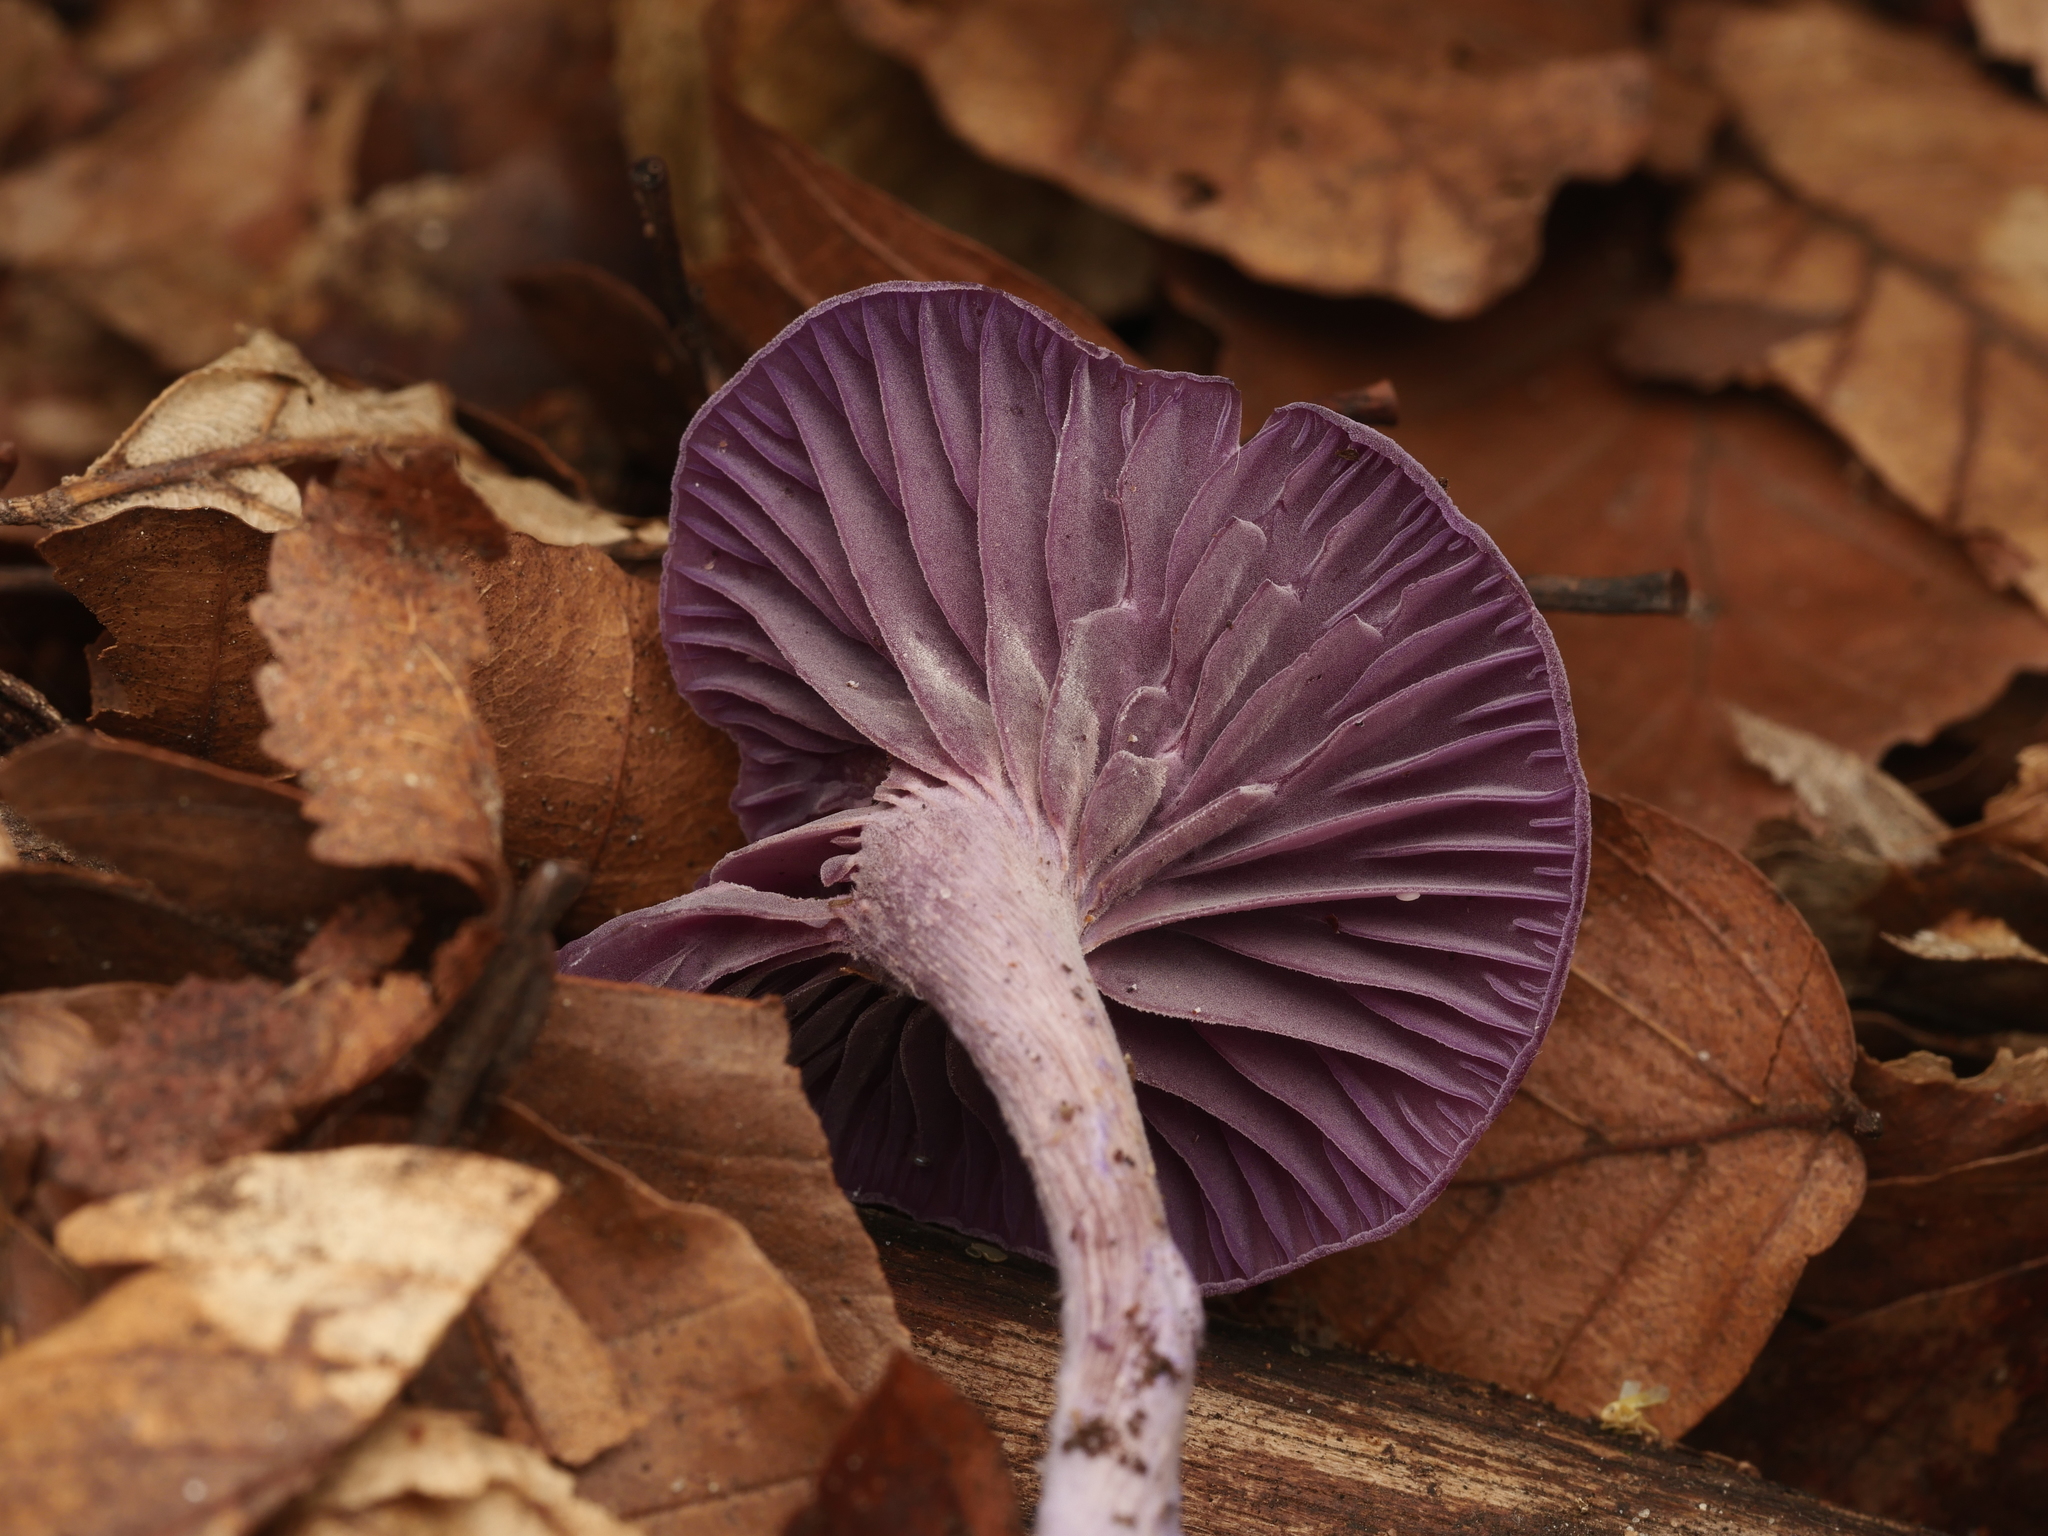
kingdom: Fungi
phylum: Basidiomycota
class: Agaricomycetes
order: Agaricales
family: Hydnangiaceae
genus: Laccaria
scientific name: Laccaria amethystina
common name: Amethyst deceiver
